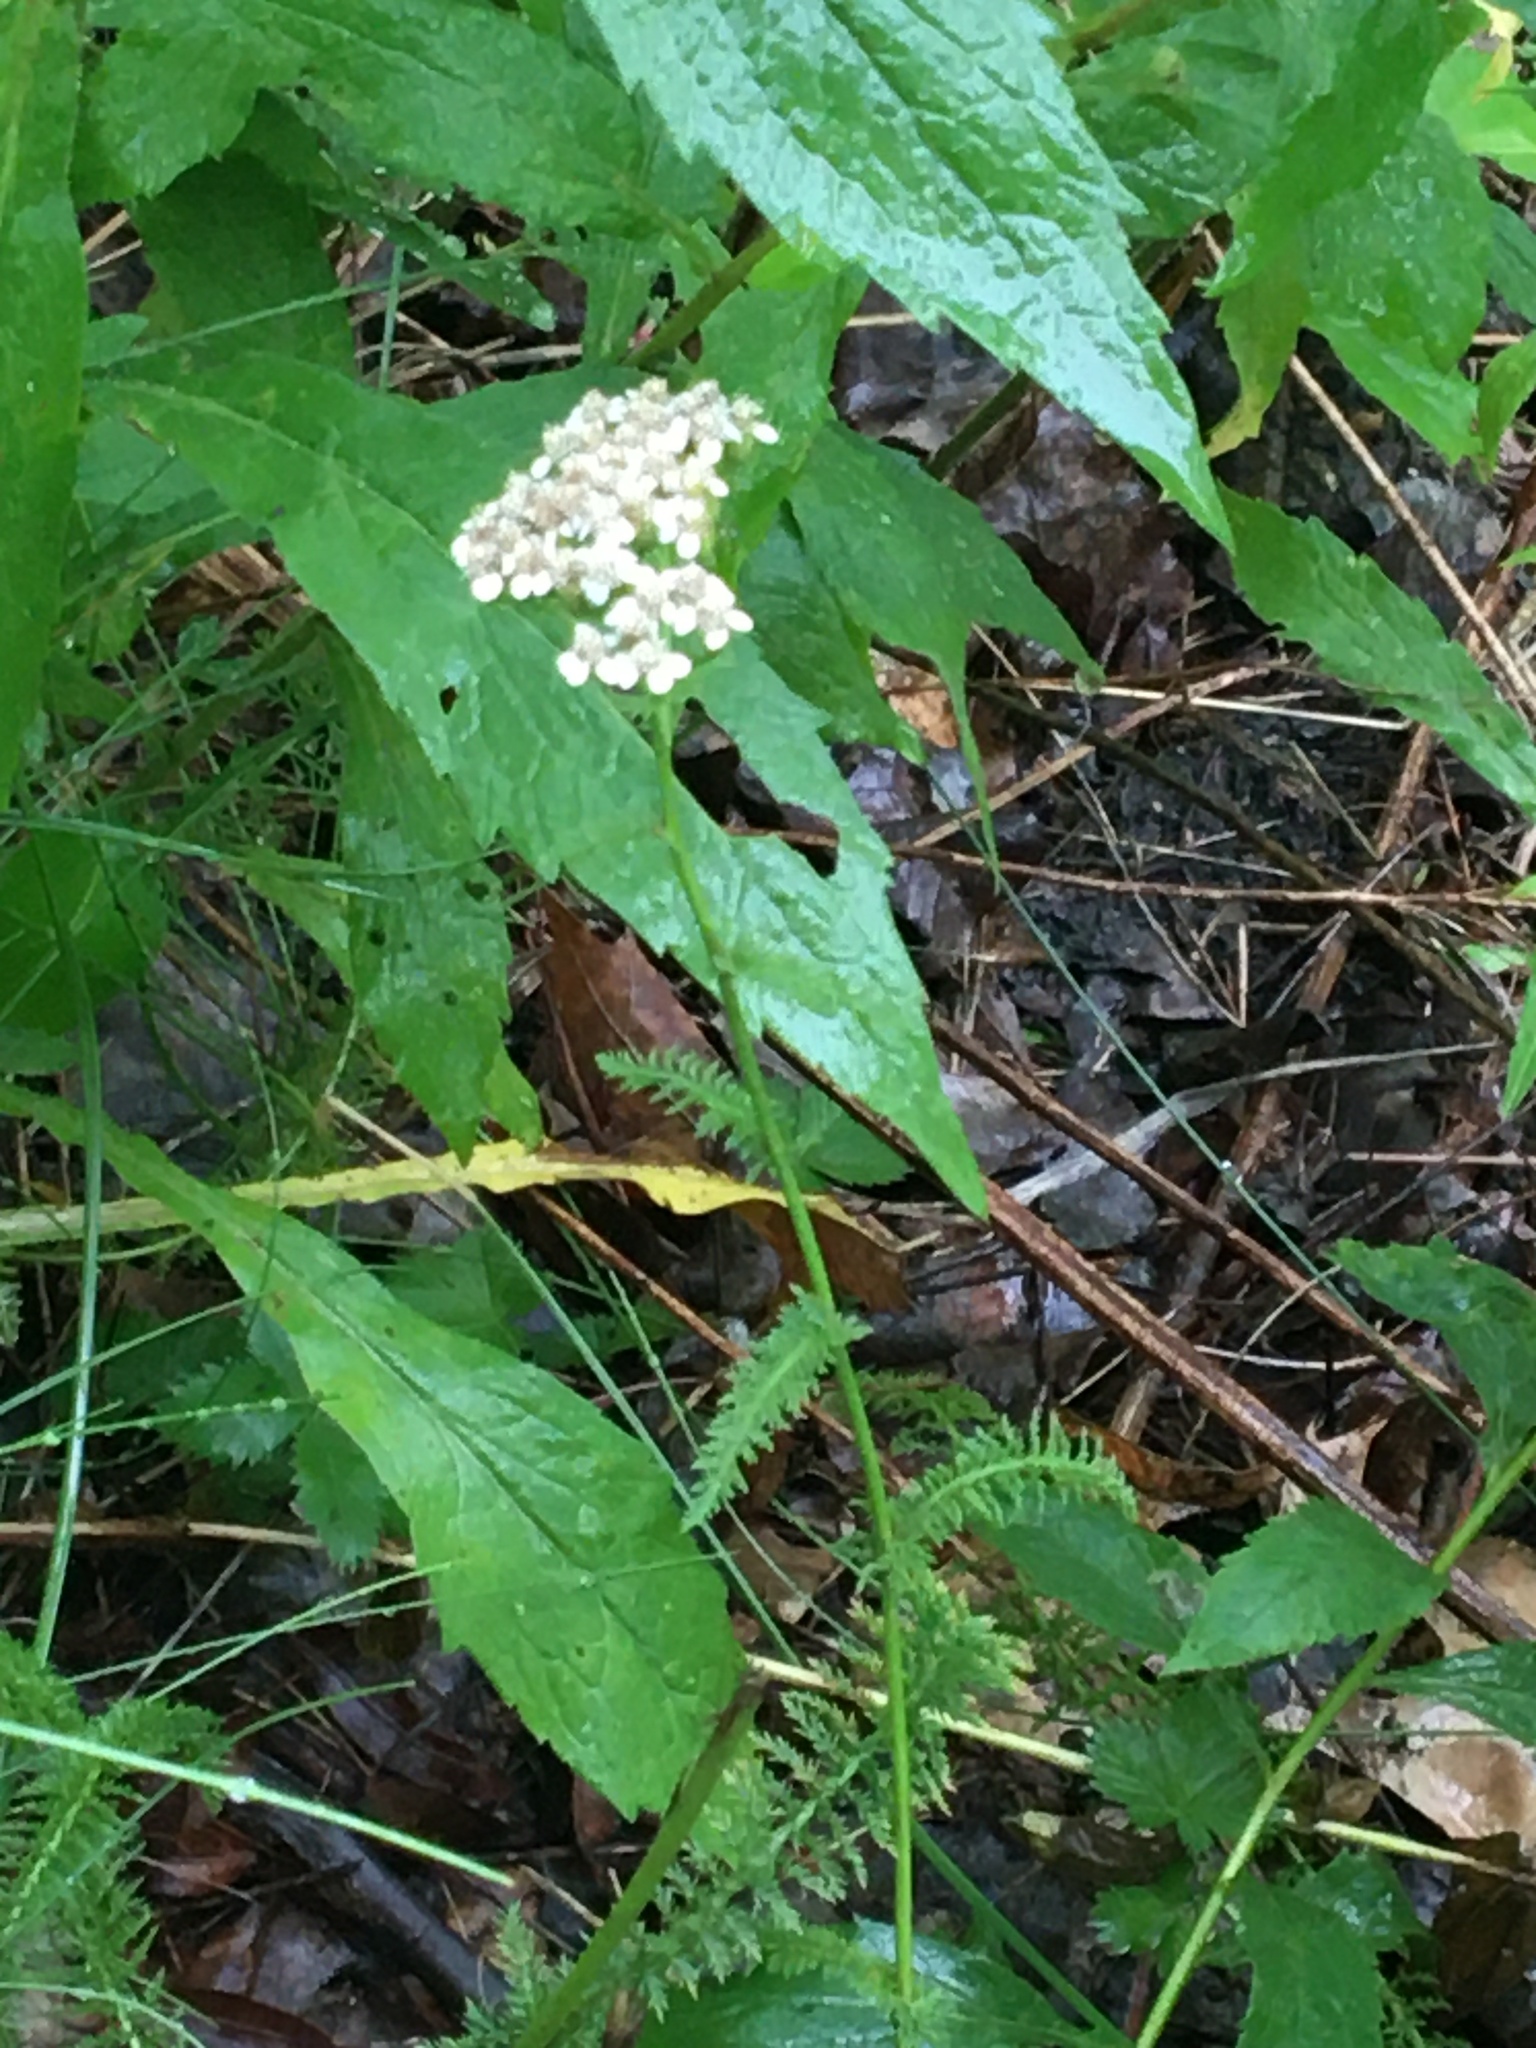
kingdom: Plantae
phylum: Tracheophyta
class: Magnoliopsida
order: Asterales
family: Asteraceae
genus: Achillea
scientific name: Achillea millefolium
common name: Yarrow
